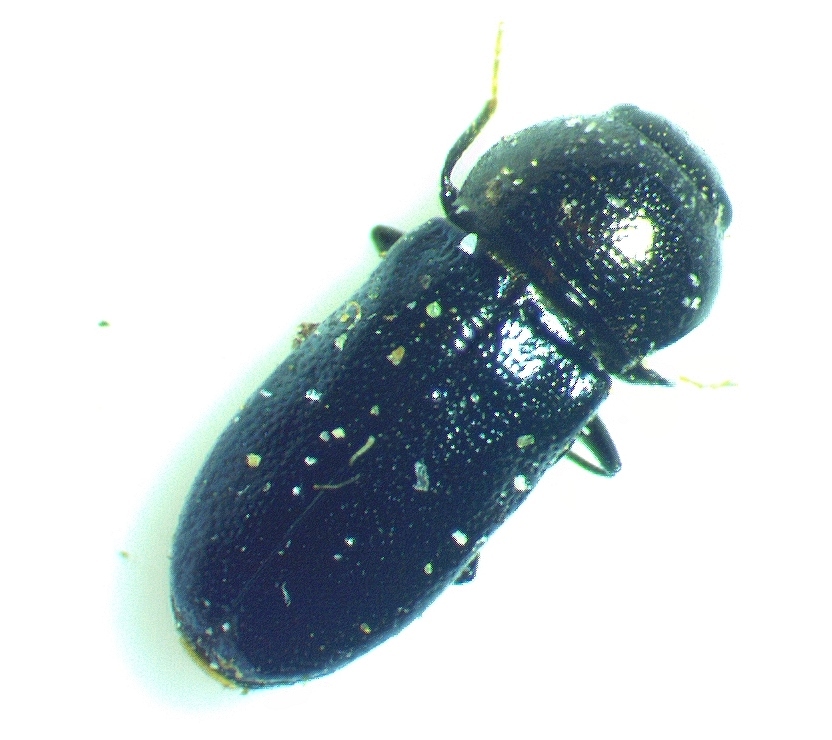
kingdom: Animalia
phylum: Arthropoda
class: Insecta
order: Coleoptera
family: Buprestidae
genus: Mastogenius
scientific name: Mastogenius subcyaneus
